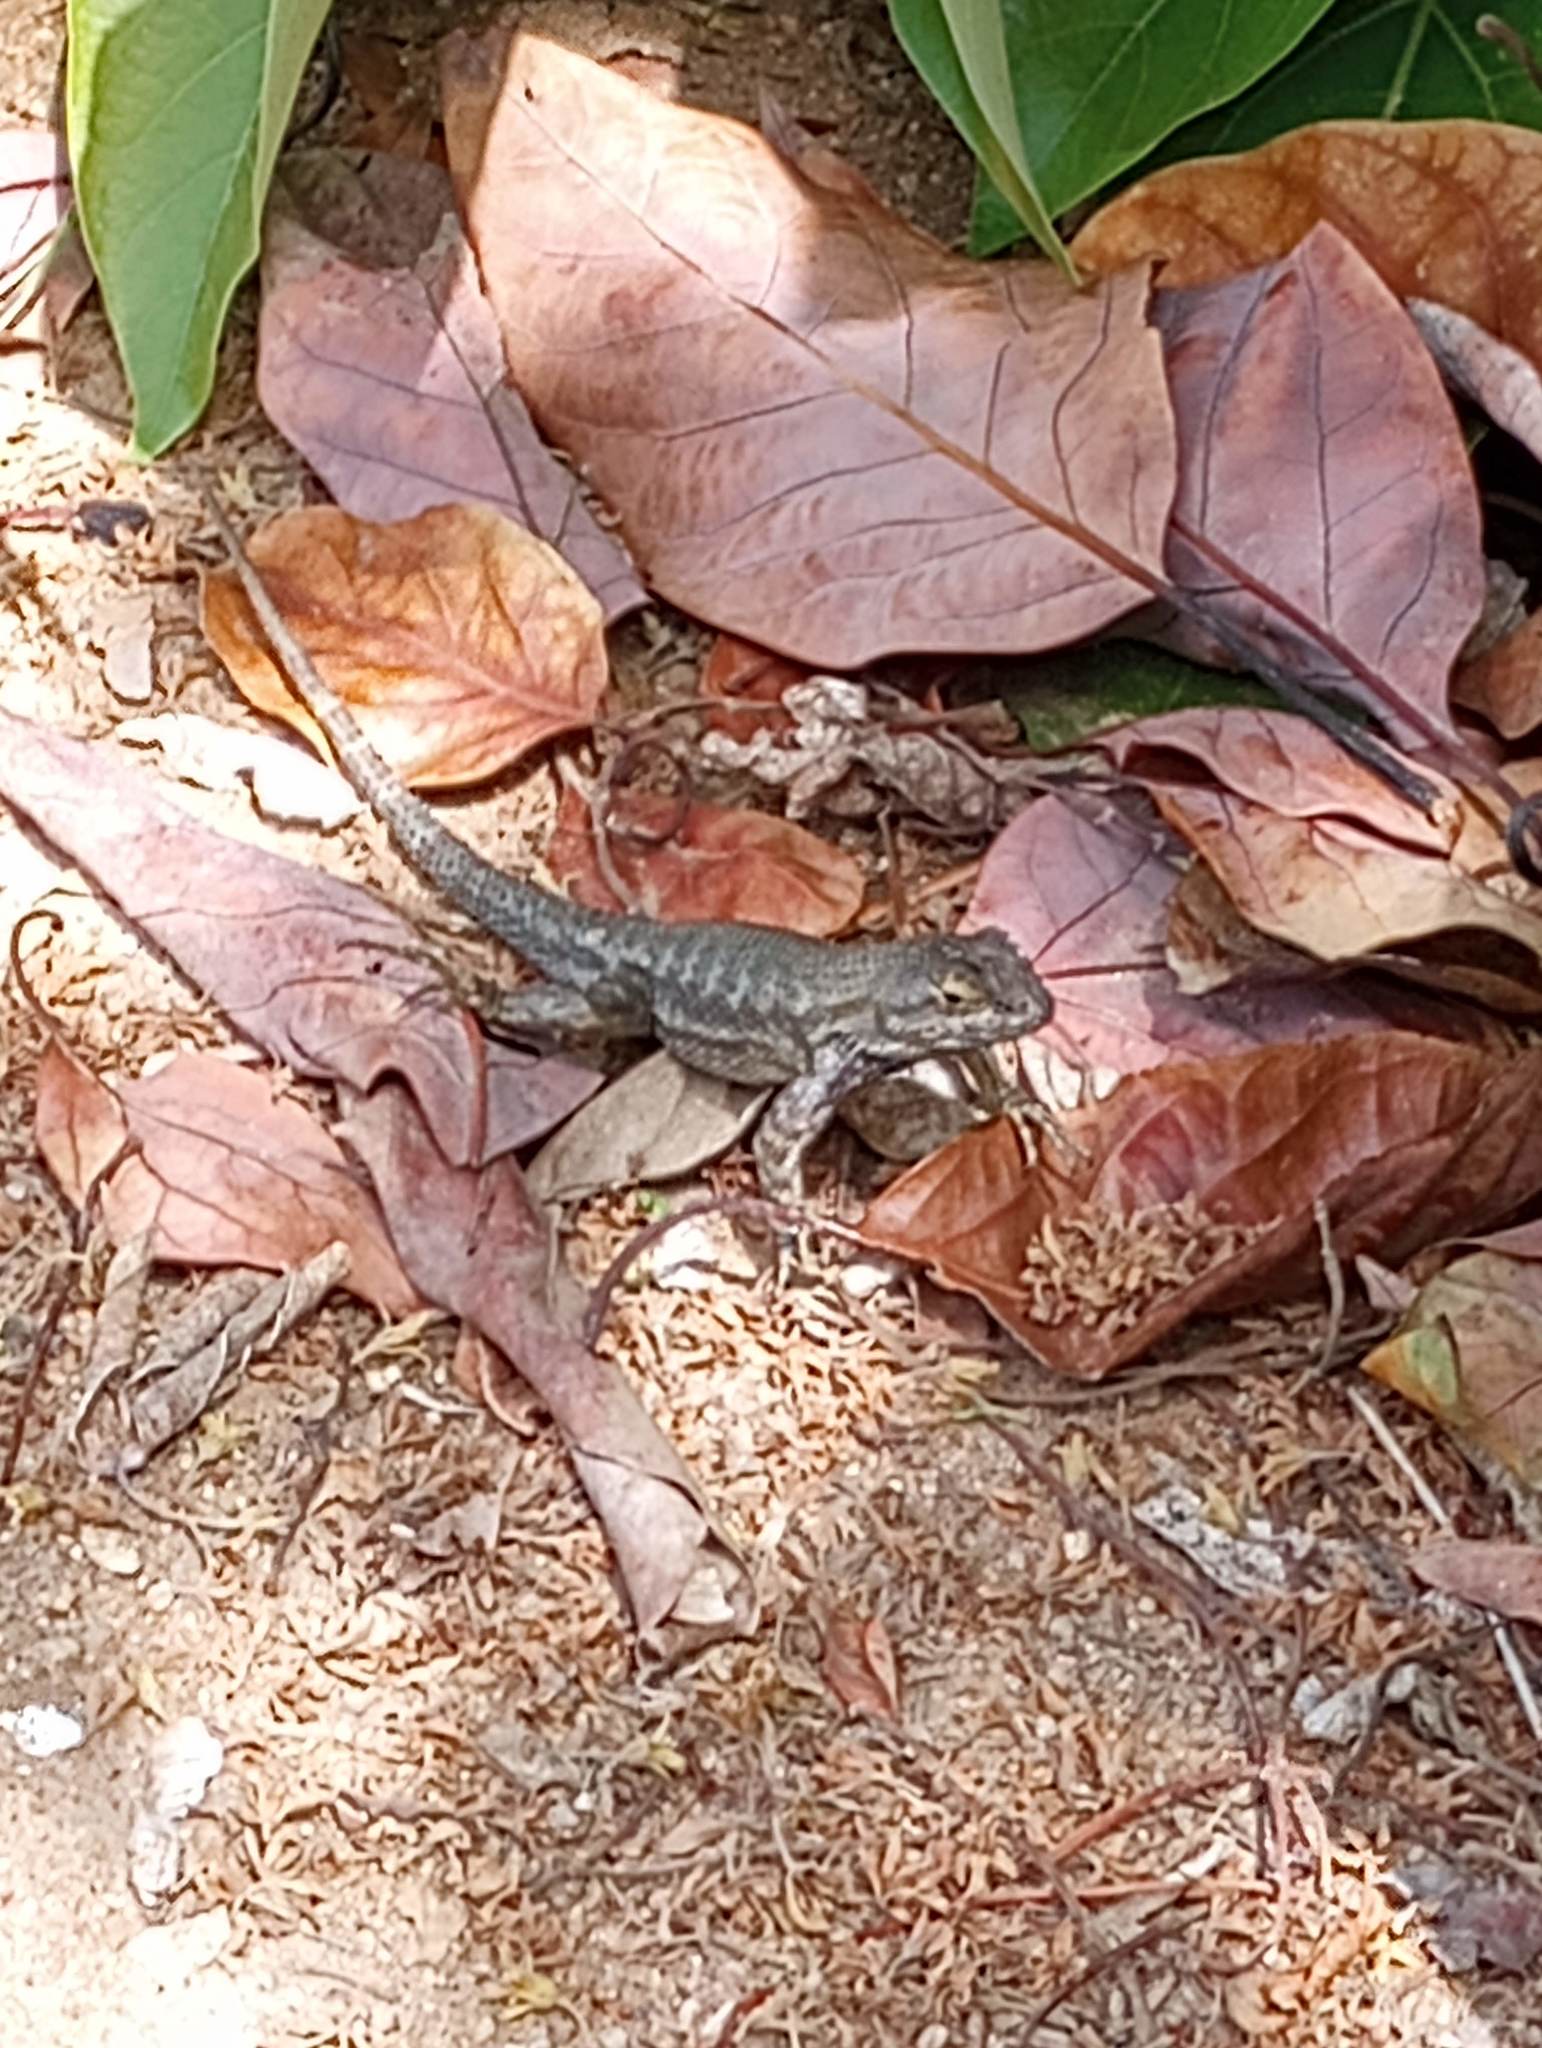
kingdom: Animalia
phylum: Chordata
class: Squamata
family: Phrynosomatidae
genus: Sceloporus
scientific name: Sceloporus occidentalis
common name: Western fence lizard
